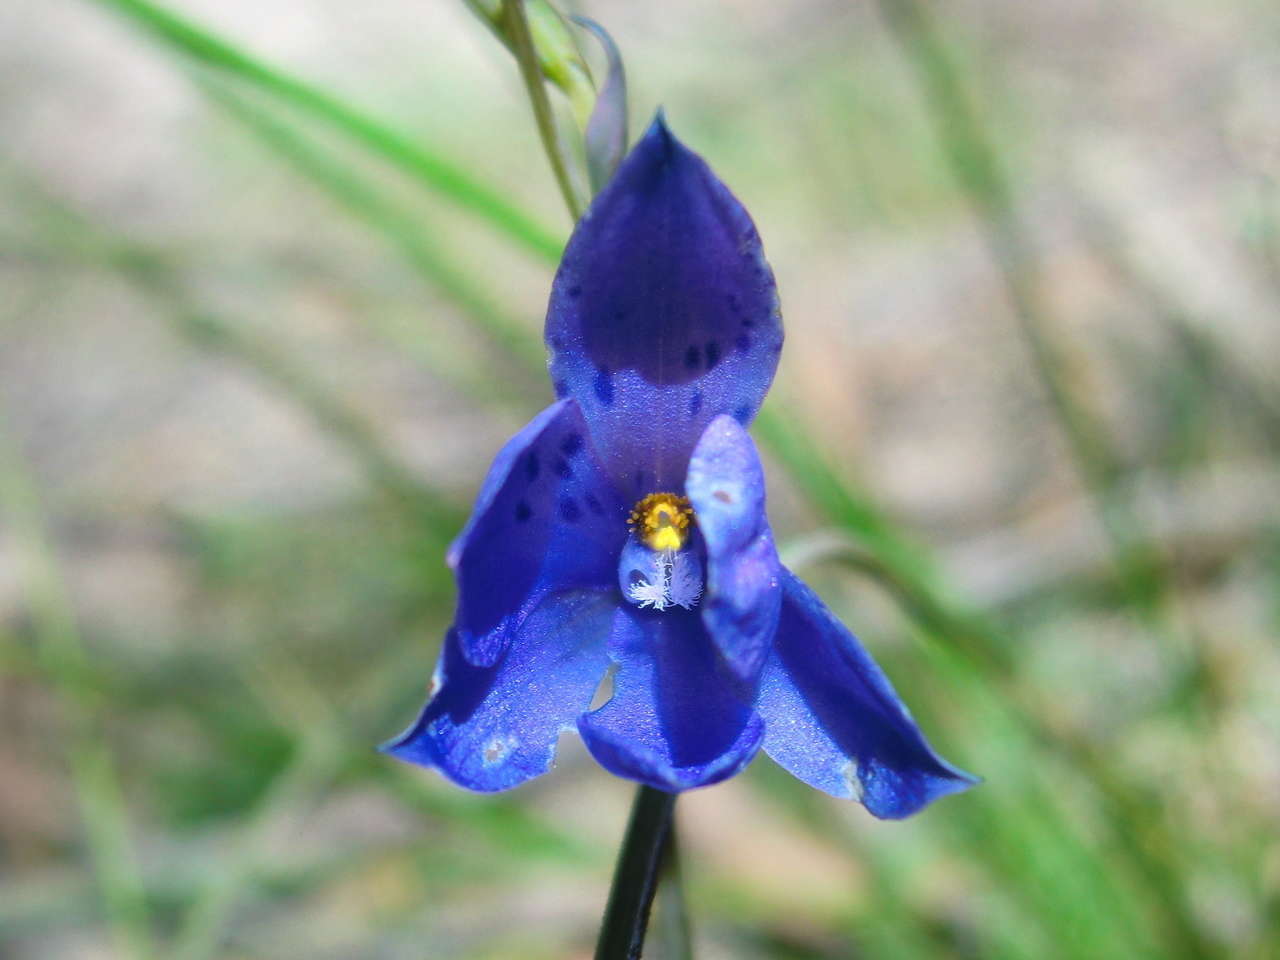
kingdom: Plantae
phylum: Tracheophyta
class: Liliopsida
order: Asparagales
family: Orchidaceae
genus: Thelymitra
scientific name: Thelymitra ixioides
